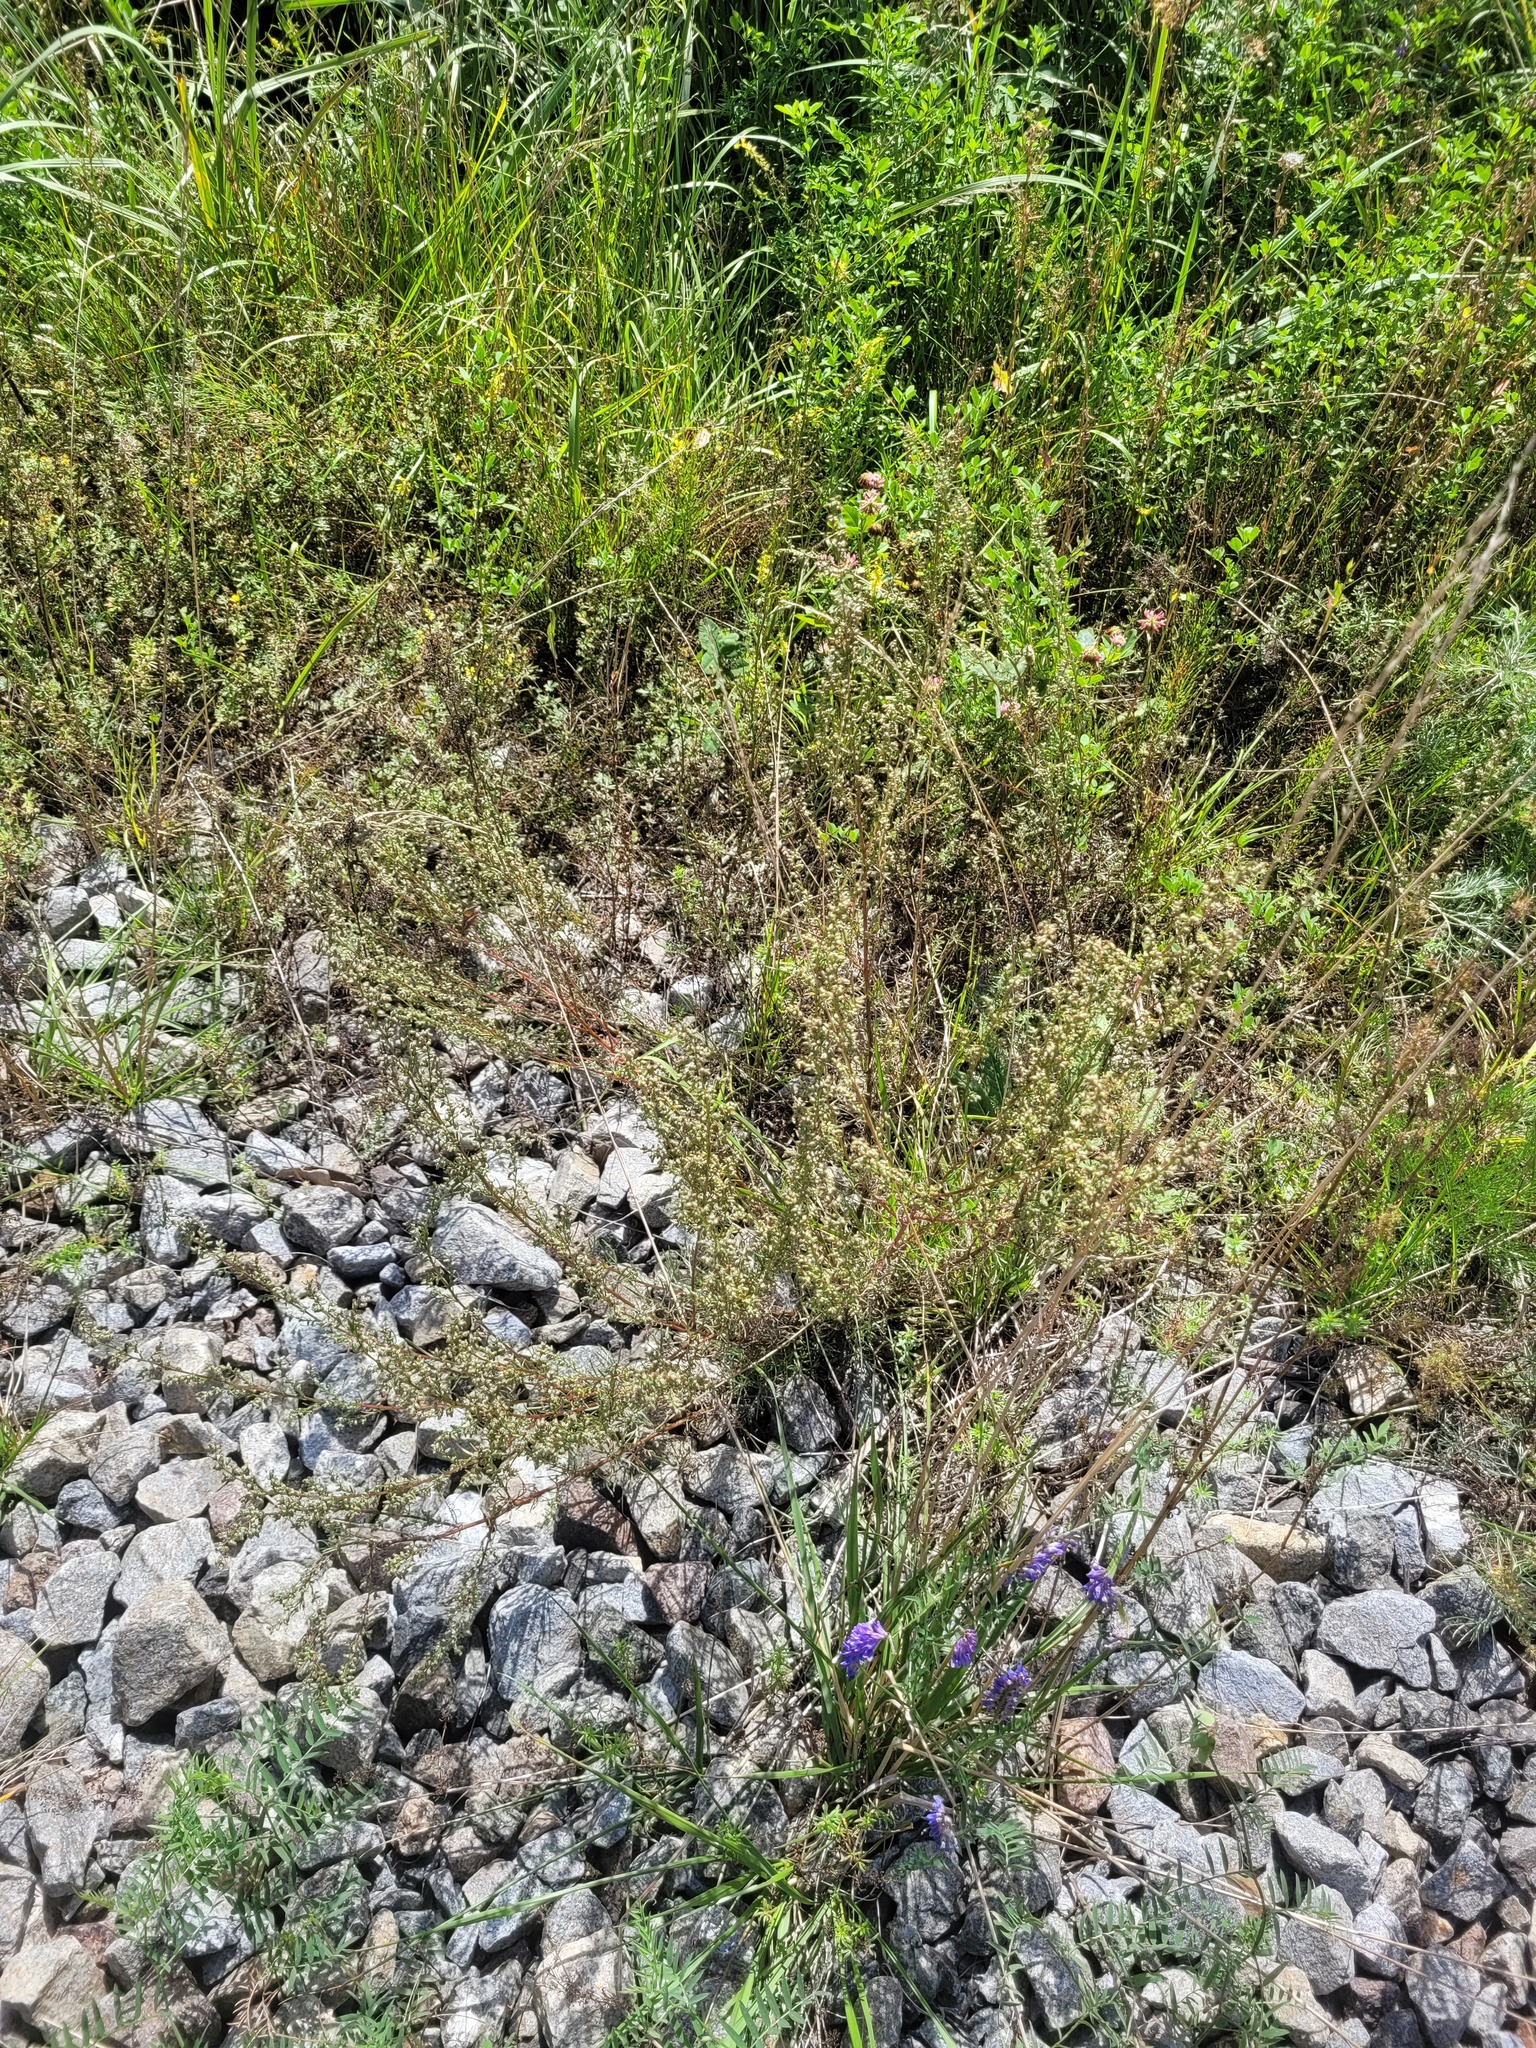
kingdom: Plantae
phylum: Tracheophyta
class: Magnoliopsida
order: Asterales
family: Asteraceae
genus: Artemisia
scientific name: Artemisia campestris
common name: Field wormwood
